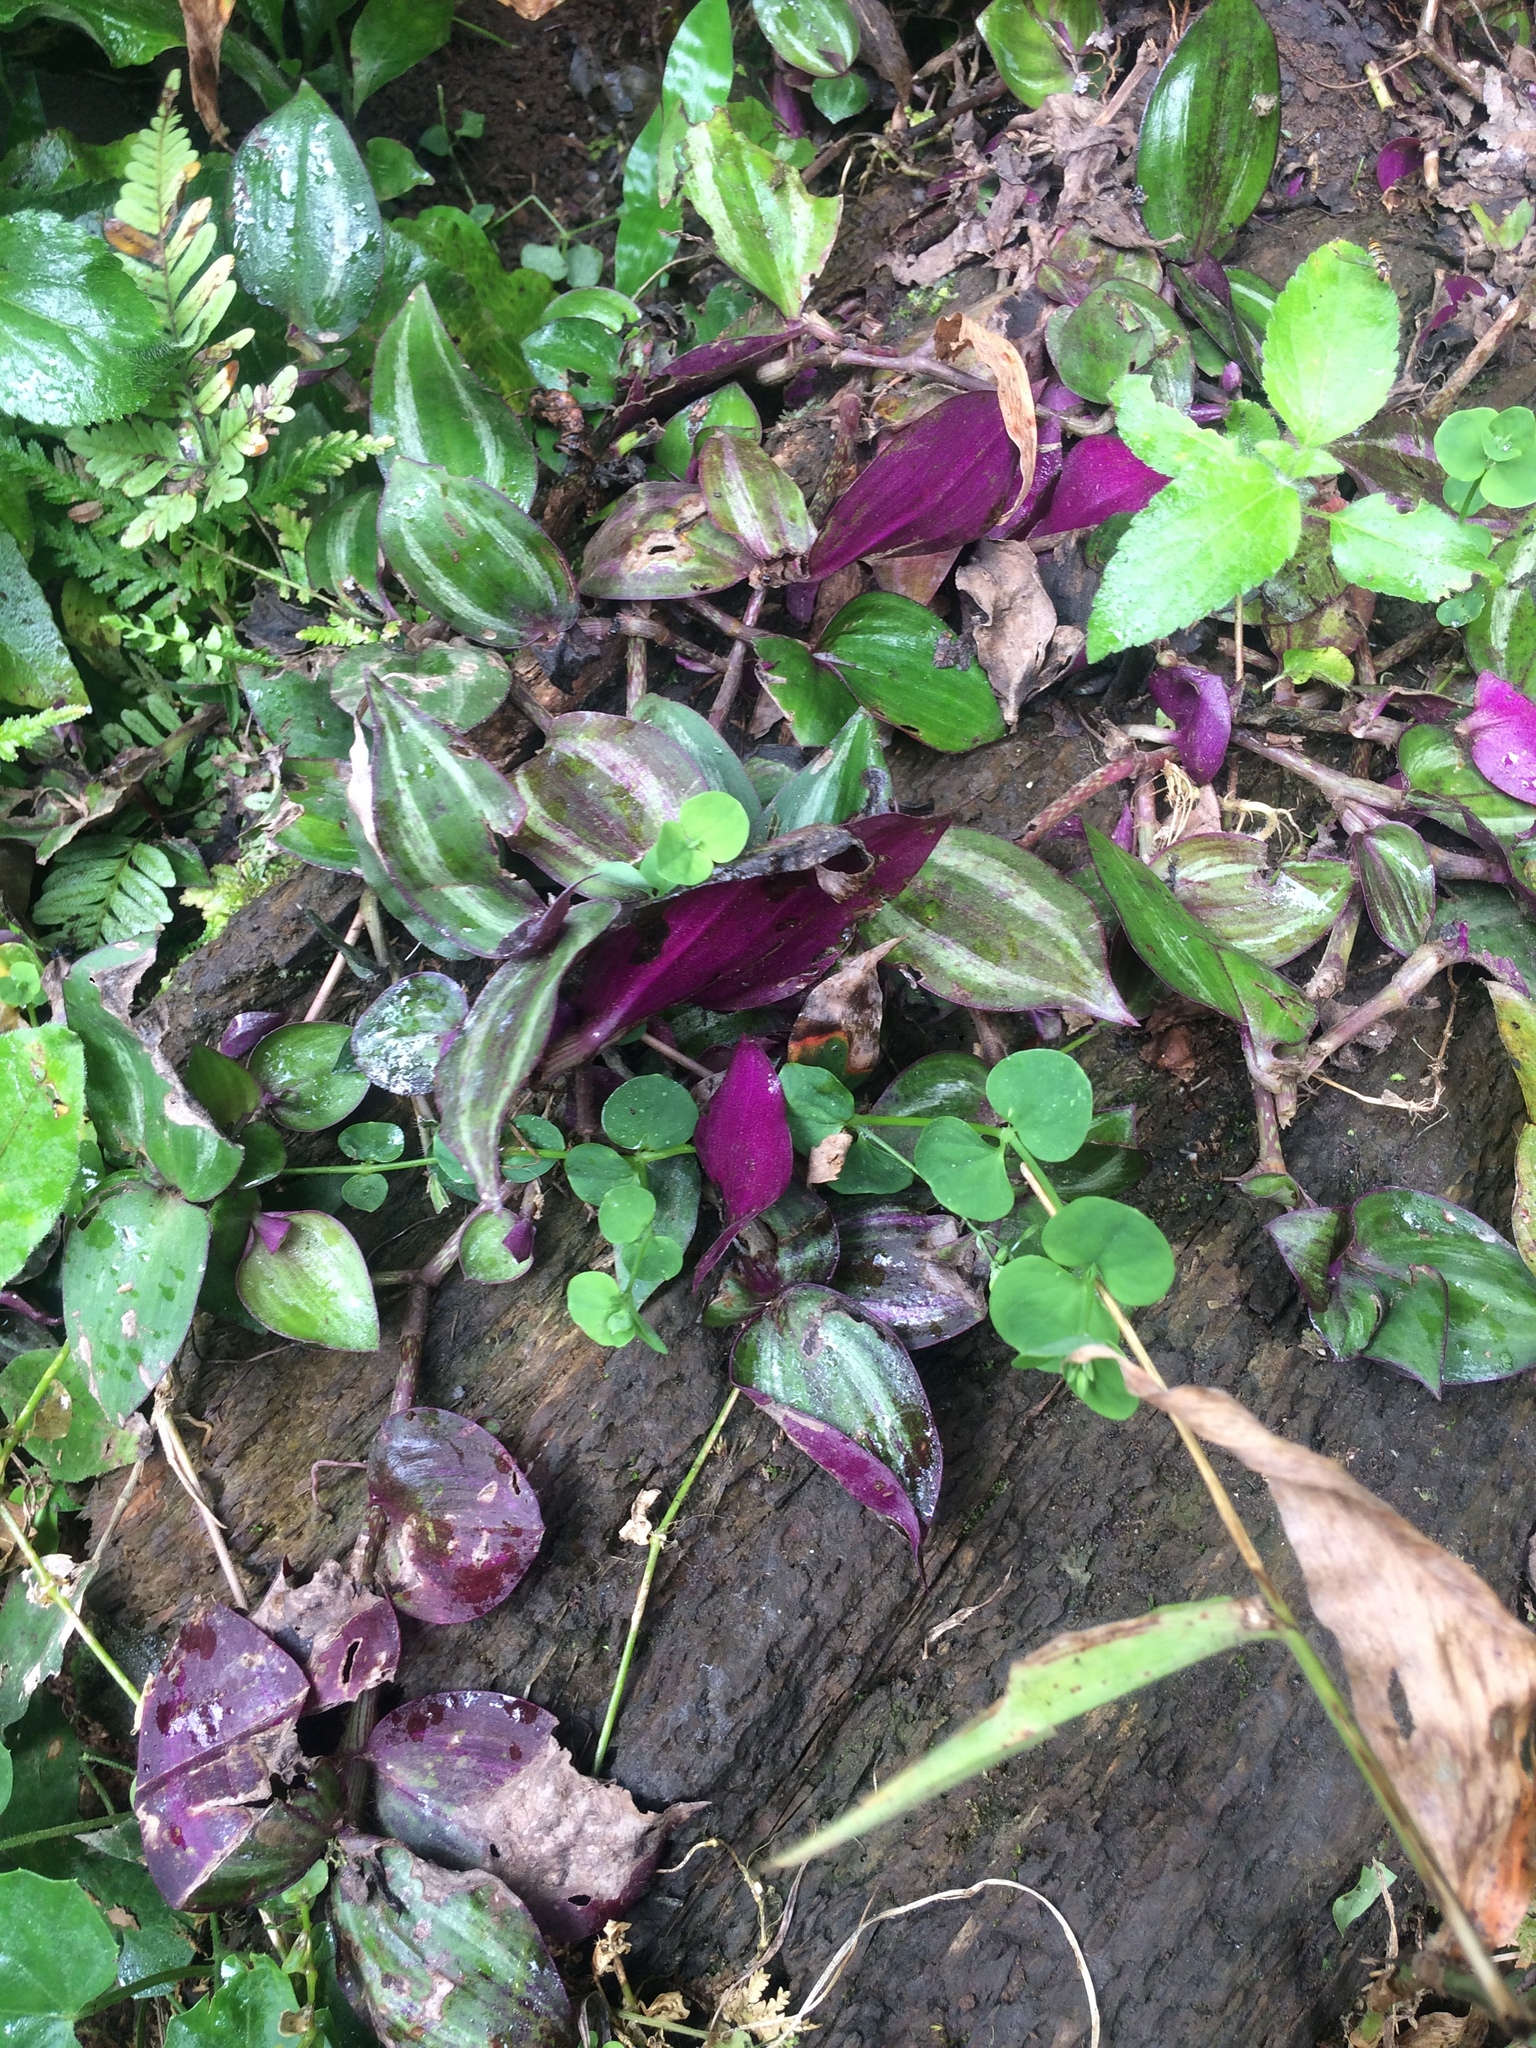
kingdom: Plantae
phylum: Tracheophyta
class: Liliopsida
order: Commelinales
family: Commelinaceae
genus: Tradescantia
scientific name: Tradescantia zebrina
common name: Inchplant
